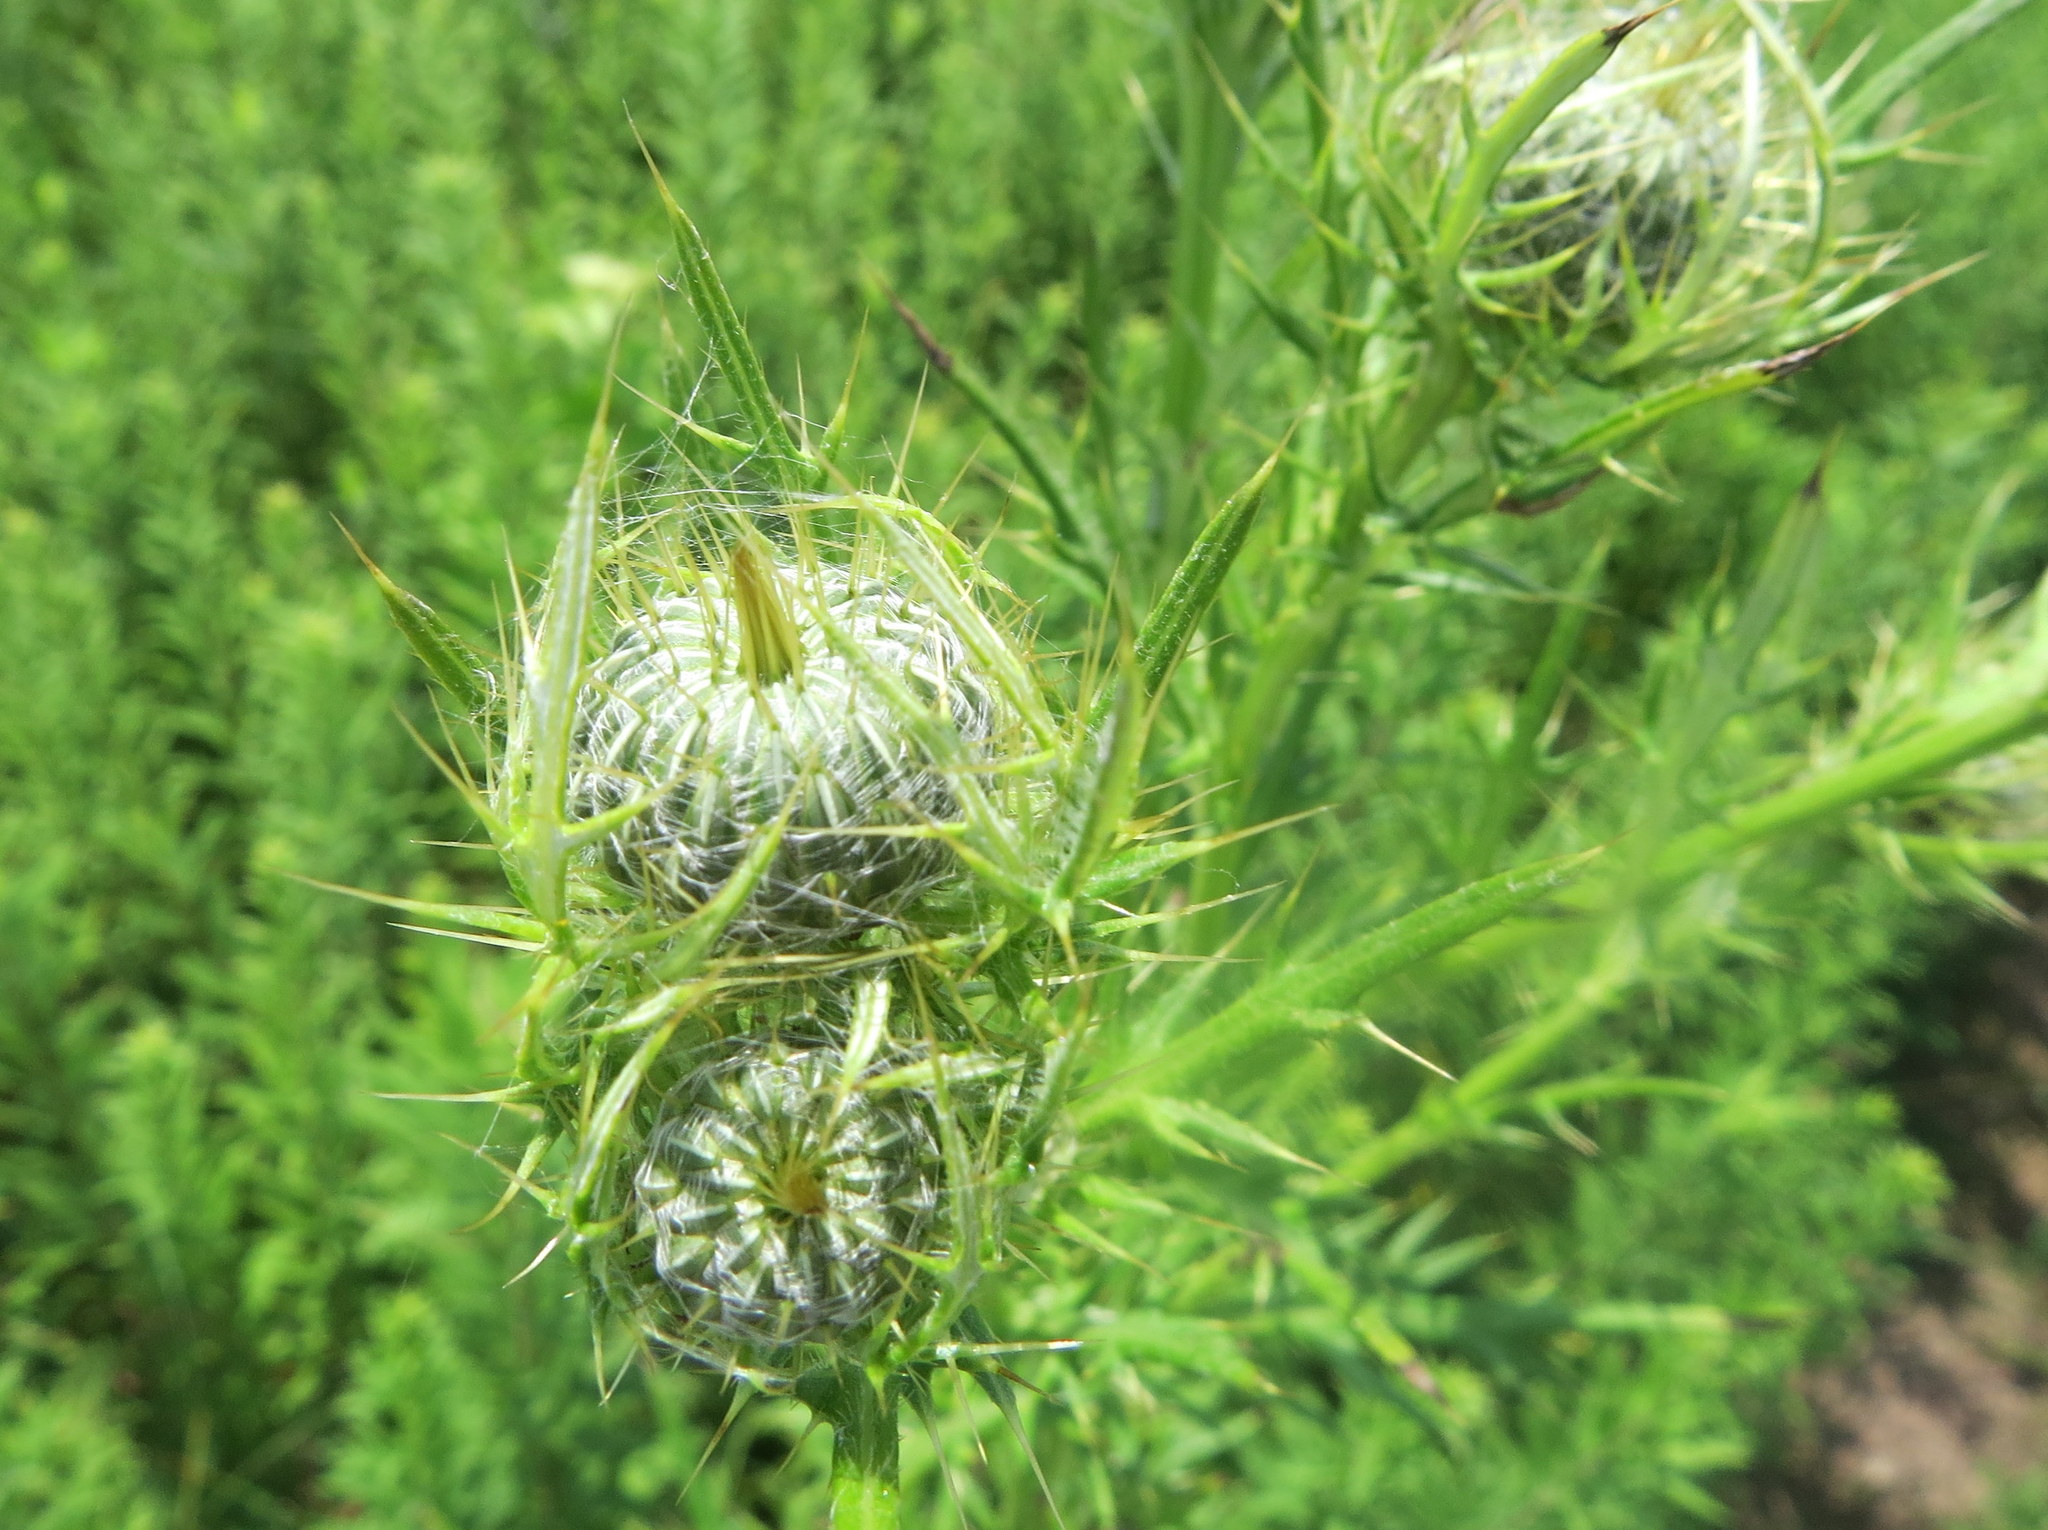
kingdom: Plantae
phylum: Tracheophyta
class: Magnoliopsida
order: Asterales
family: Asteraceae
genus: Cirsium
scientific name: Cirsium discolor
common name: Field thistle
